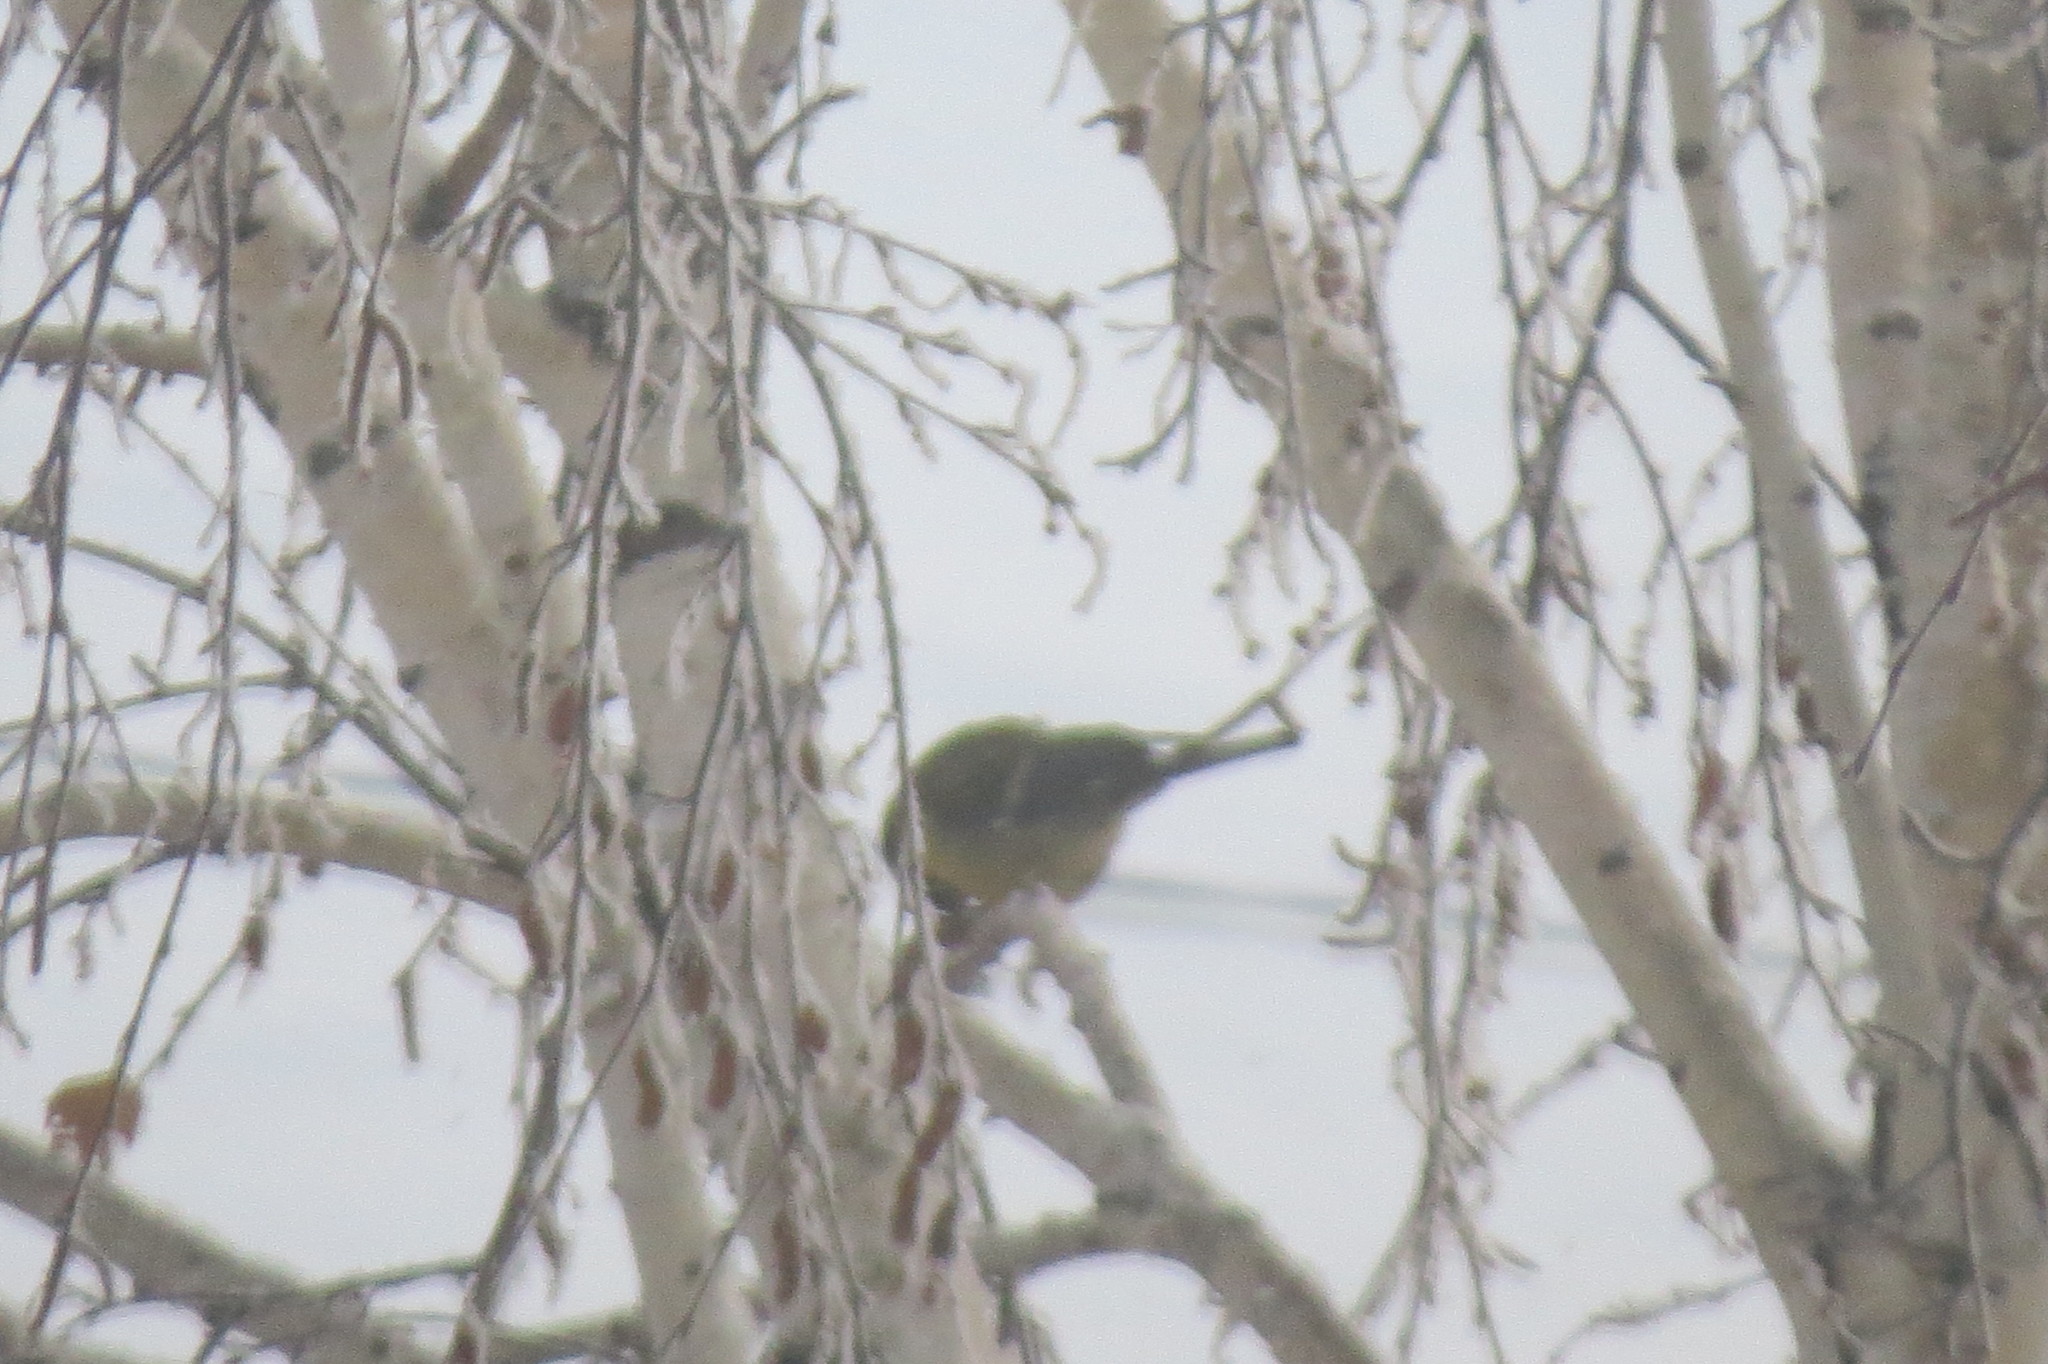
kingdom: Animalia
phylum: Chordata
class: Aves
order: Passeriformes
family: Paridae
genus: Parus
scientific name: Parus major
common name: Great tit
